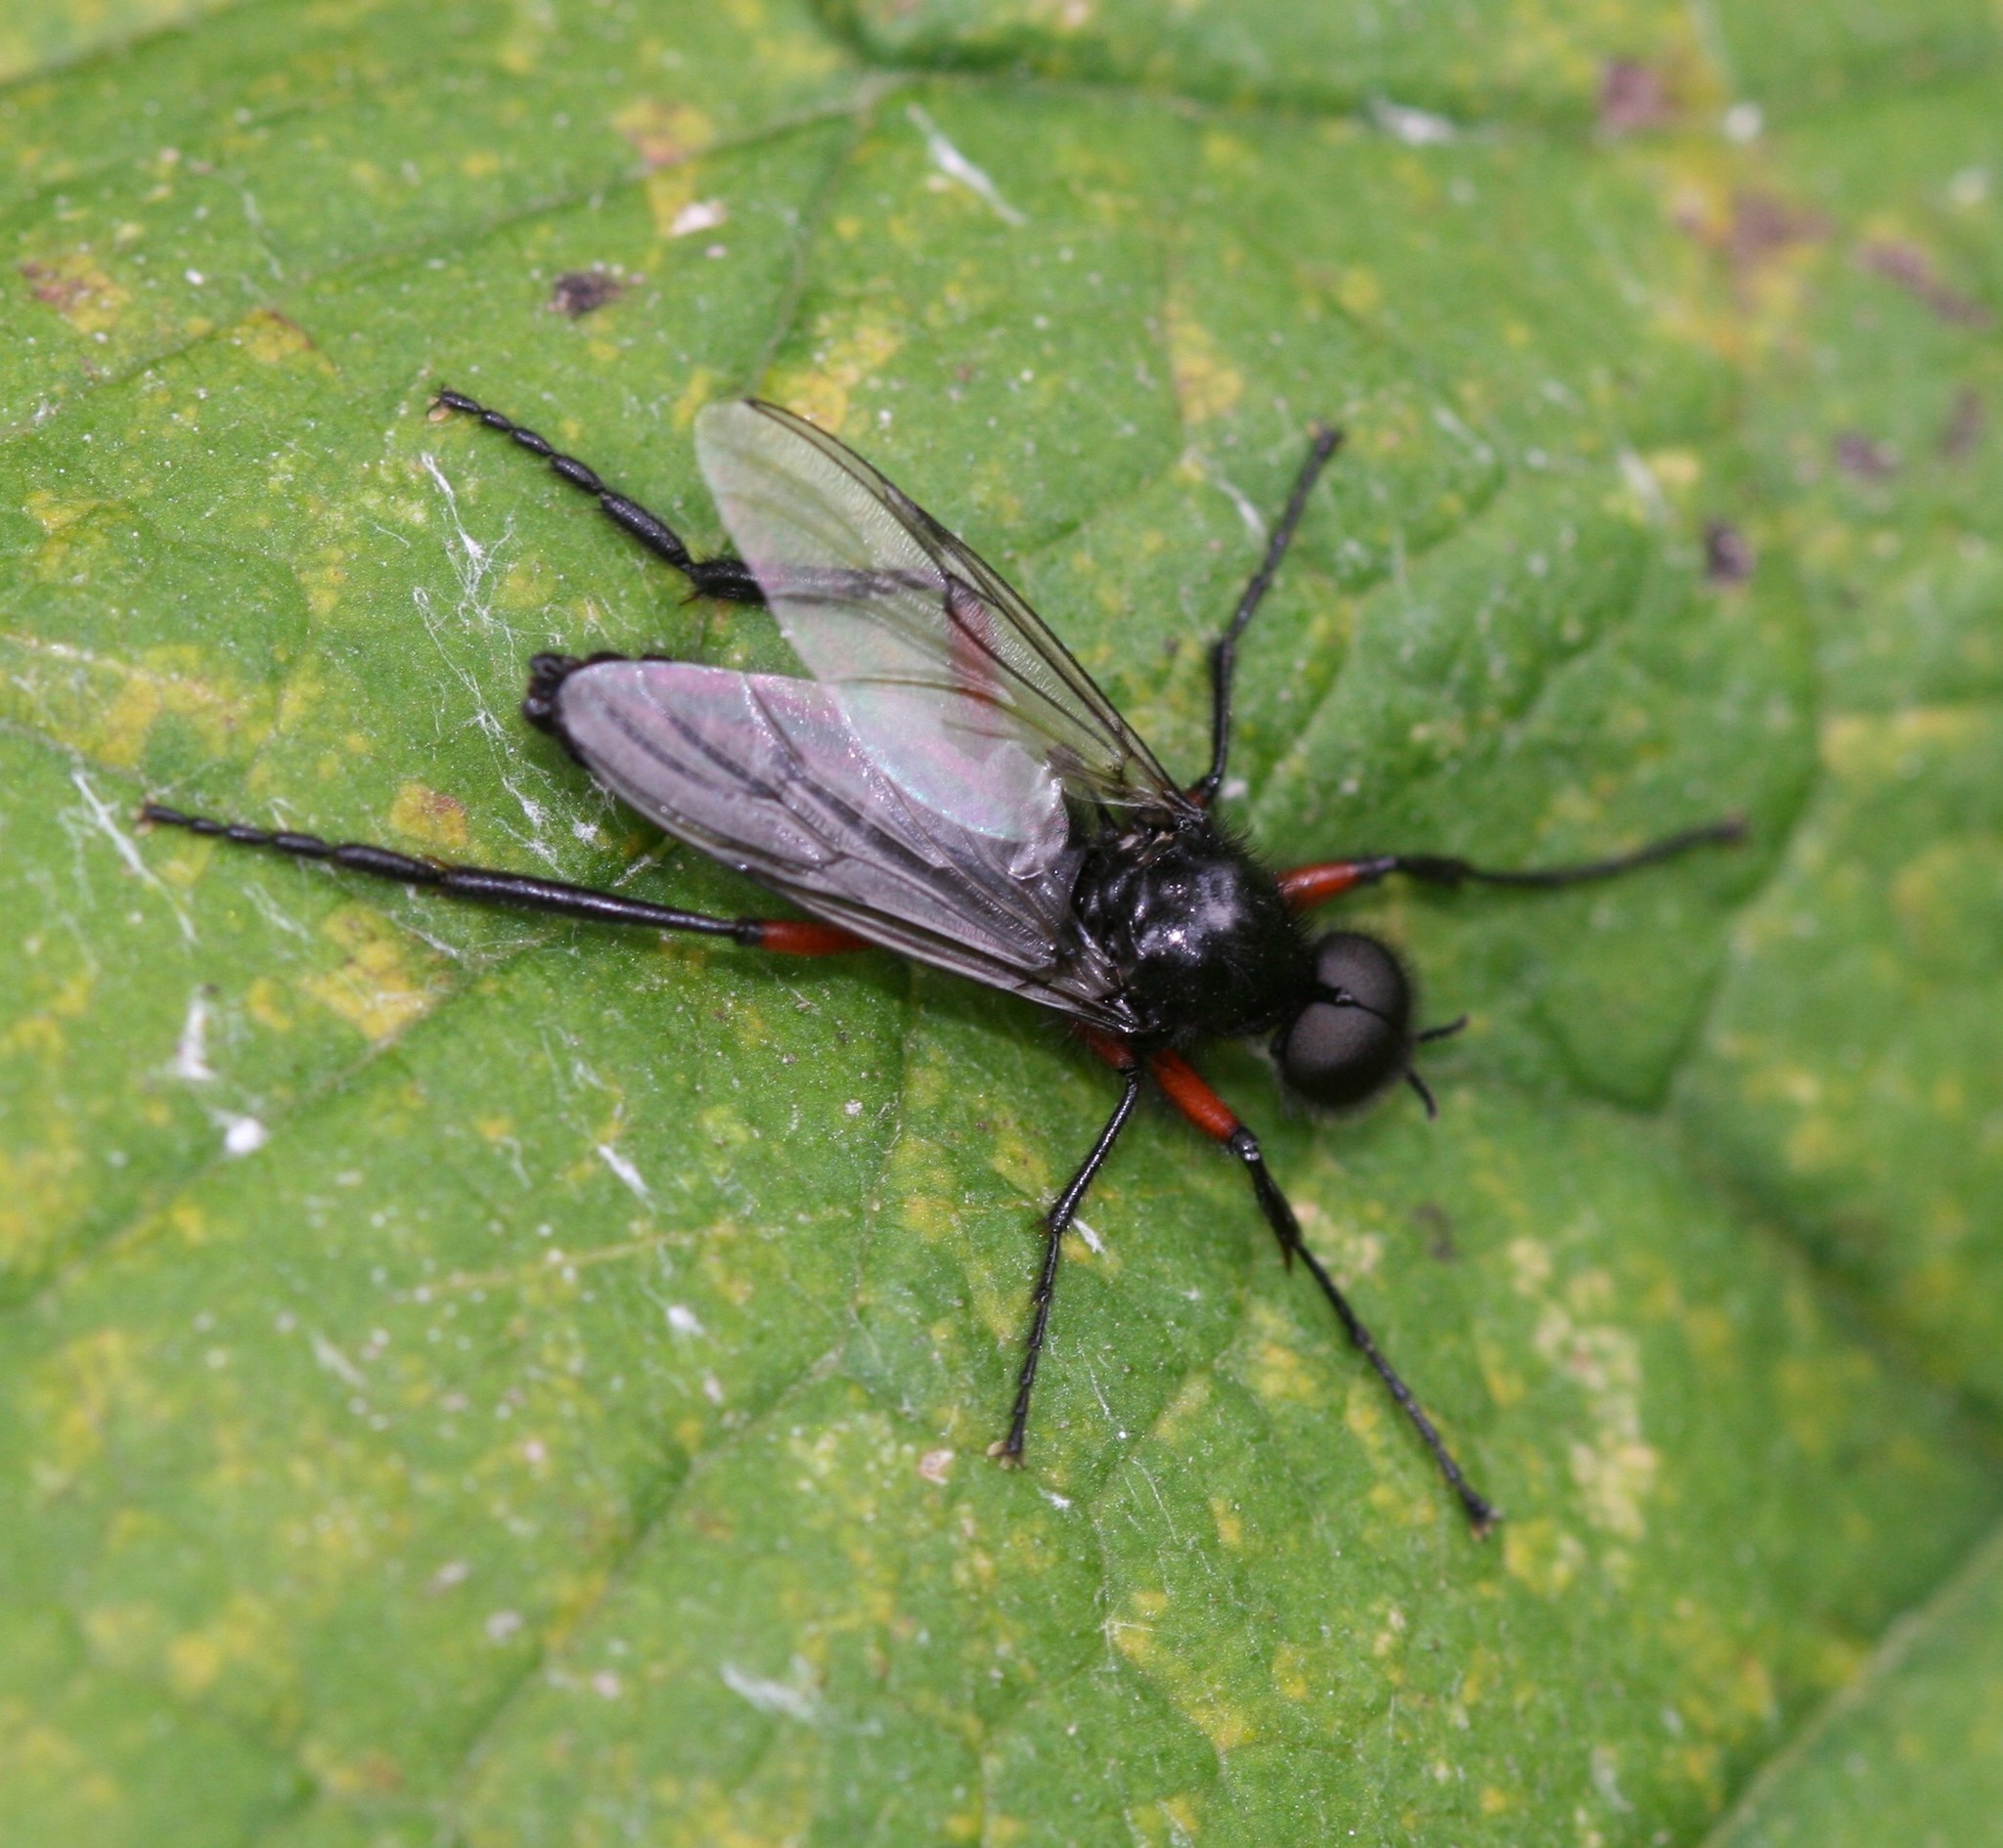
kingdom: Animalia
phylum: Arthropoda
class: Insecta
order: Diptera
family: Bibionidae
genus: Bibio
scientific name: Bibio pomonae
